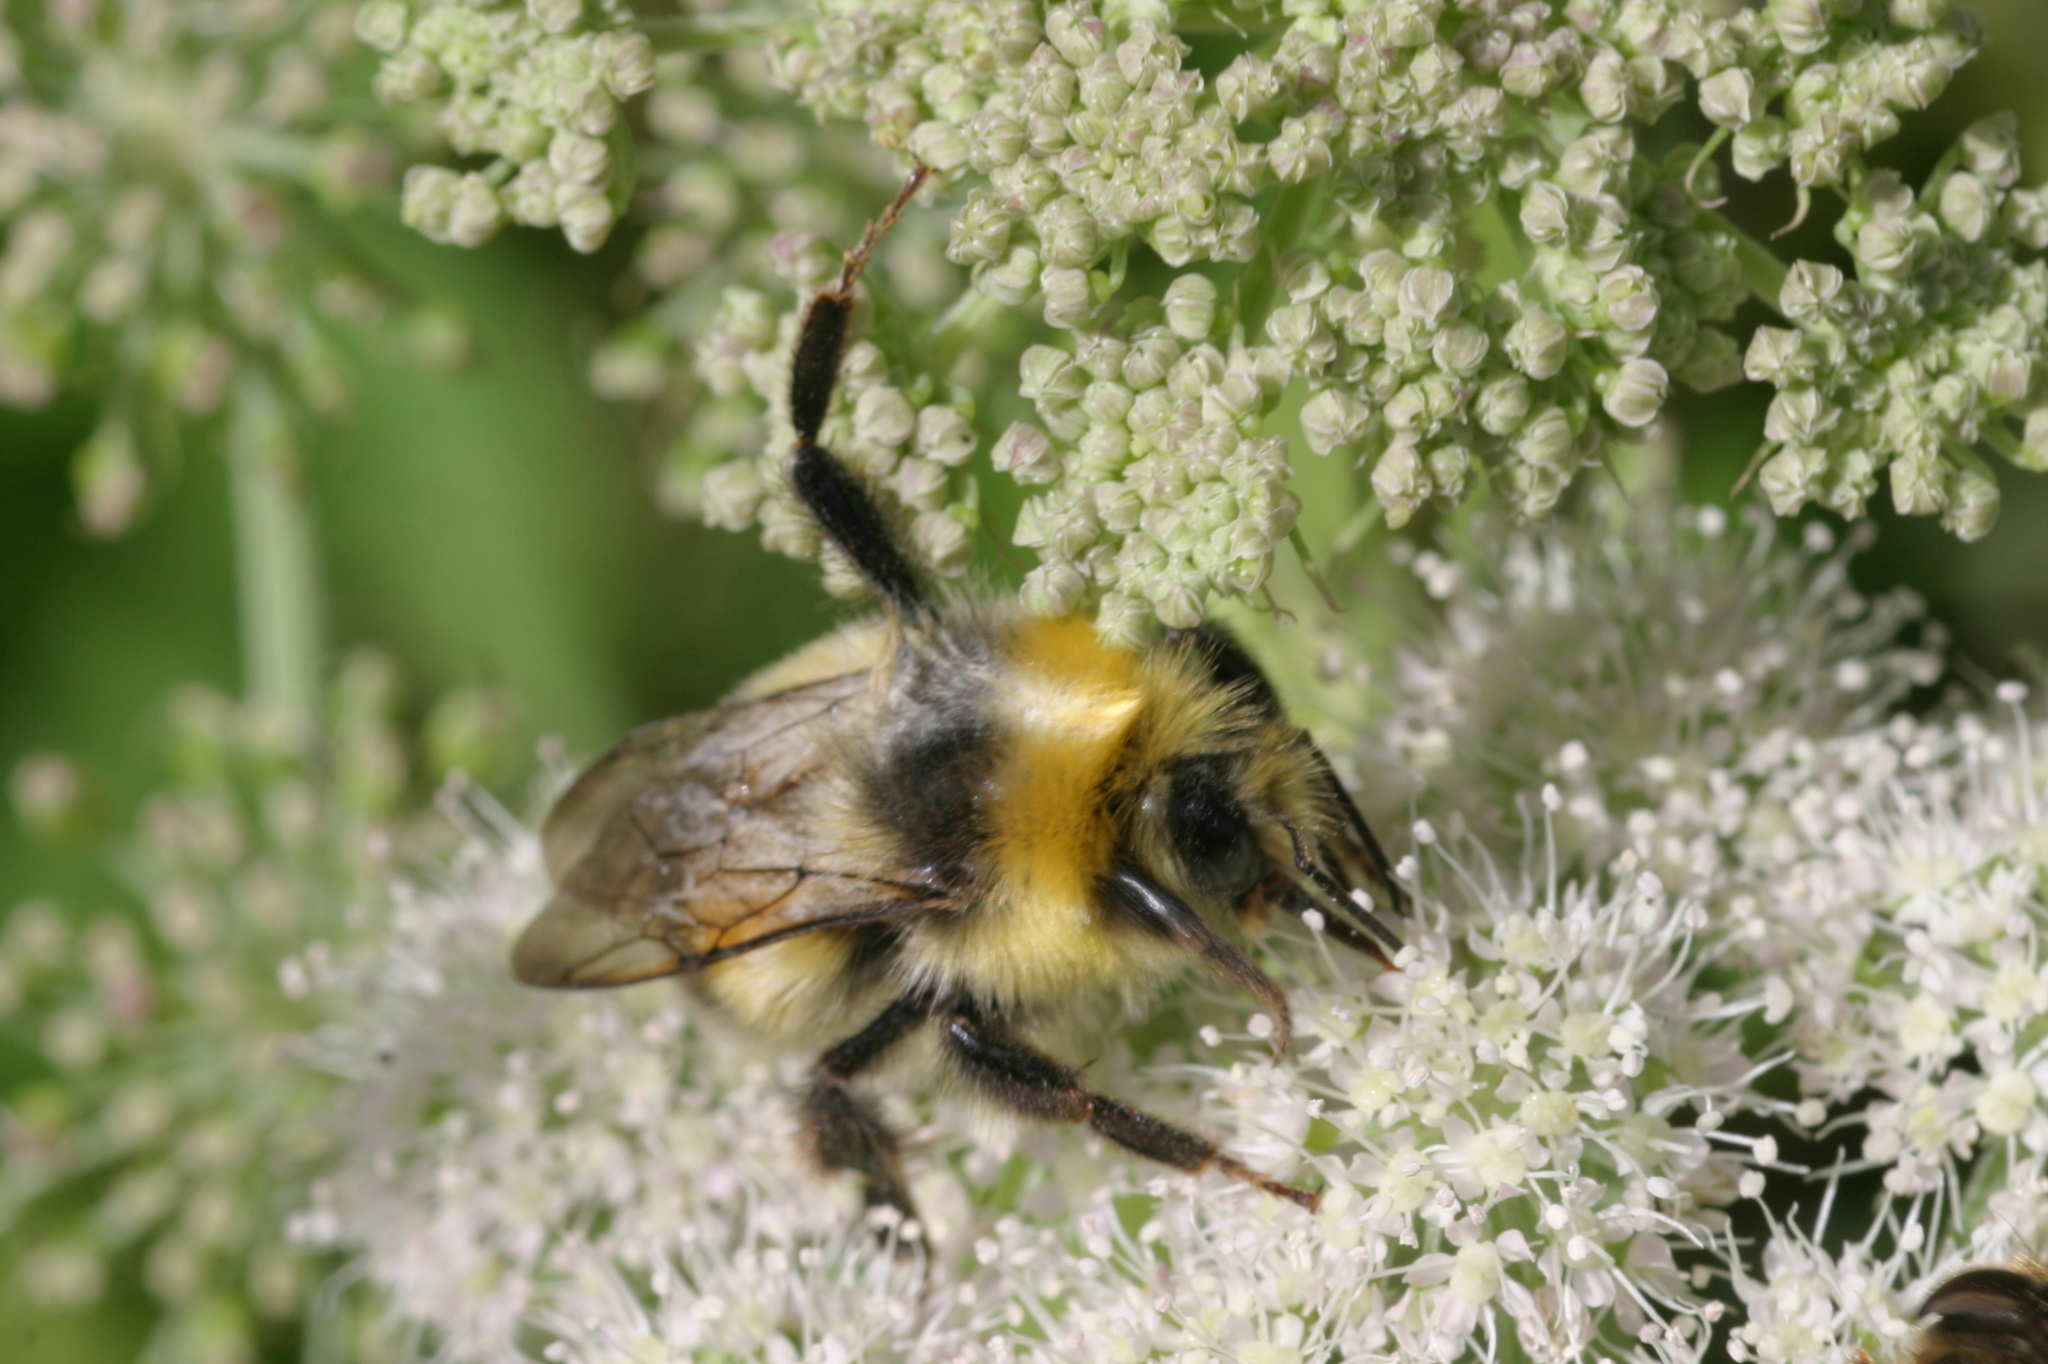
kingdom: Animalia
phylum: Arthropoda
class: Insecta
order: Hymenoptera
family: Apidae
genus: Bombus
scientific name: Bombus lucorum
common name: White-tailed bumblebee
